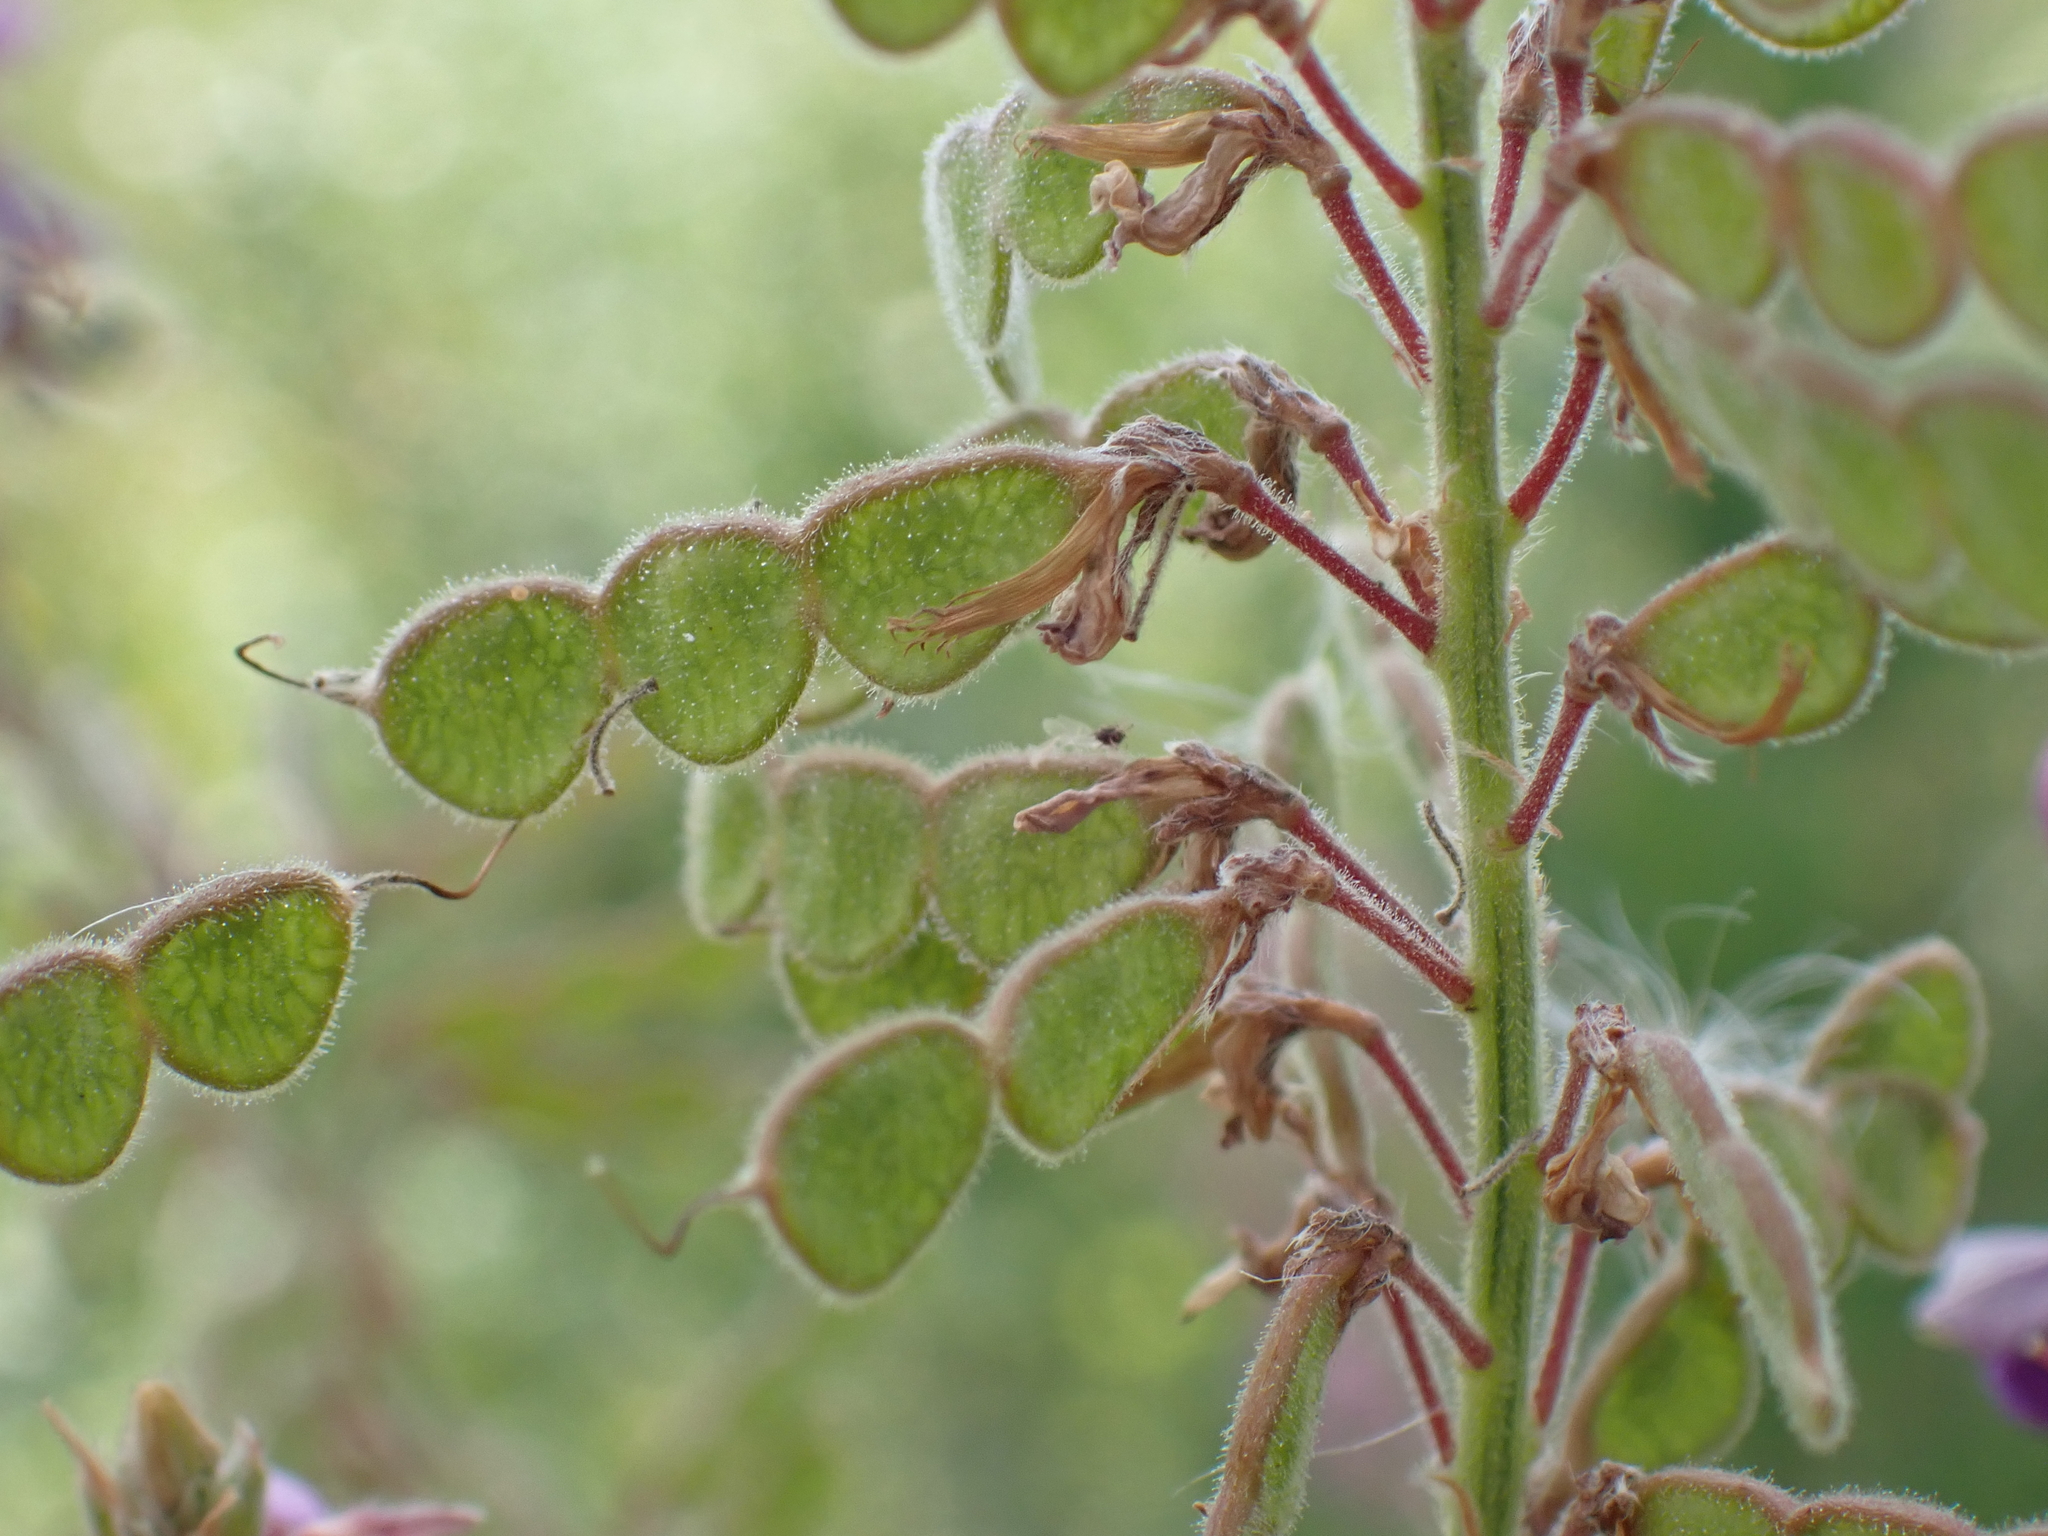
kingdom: Plantae
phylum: Tracheophyta
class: Magnoliopsida
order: Fabales
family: Fabaceae
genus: Desmodium
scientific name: Desmodium canadense
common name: Canada tick-trefoil
